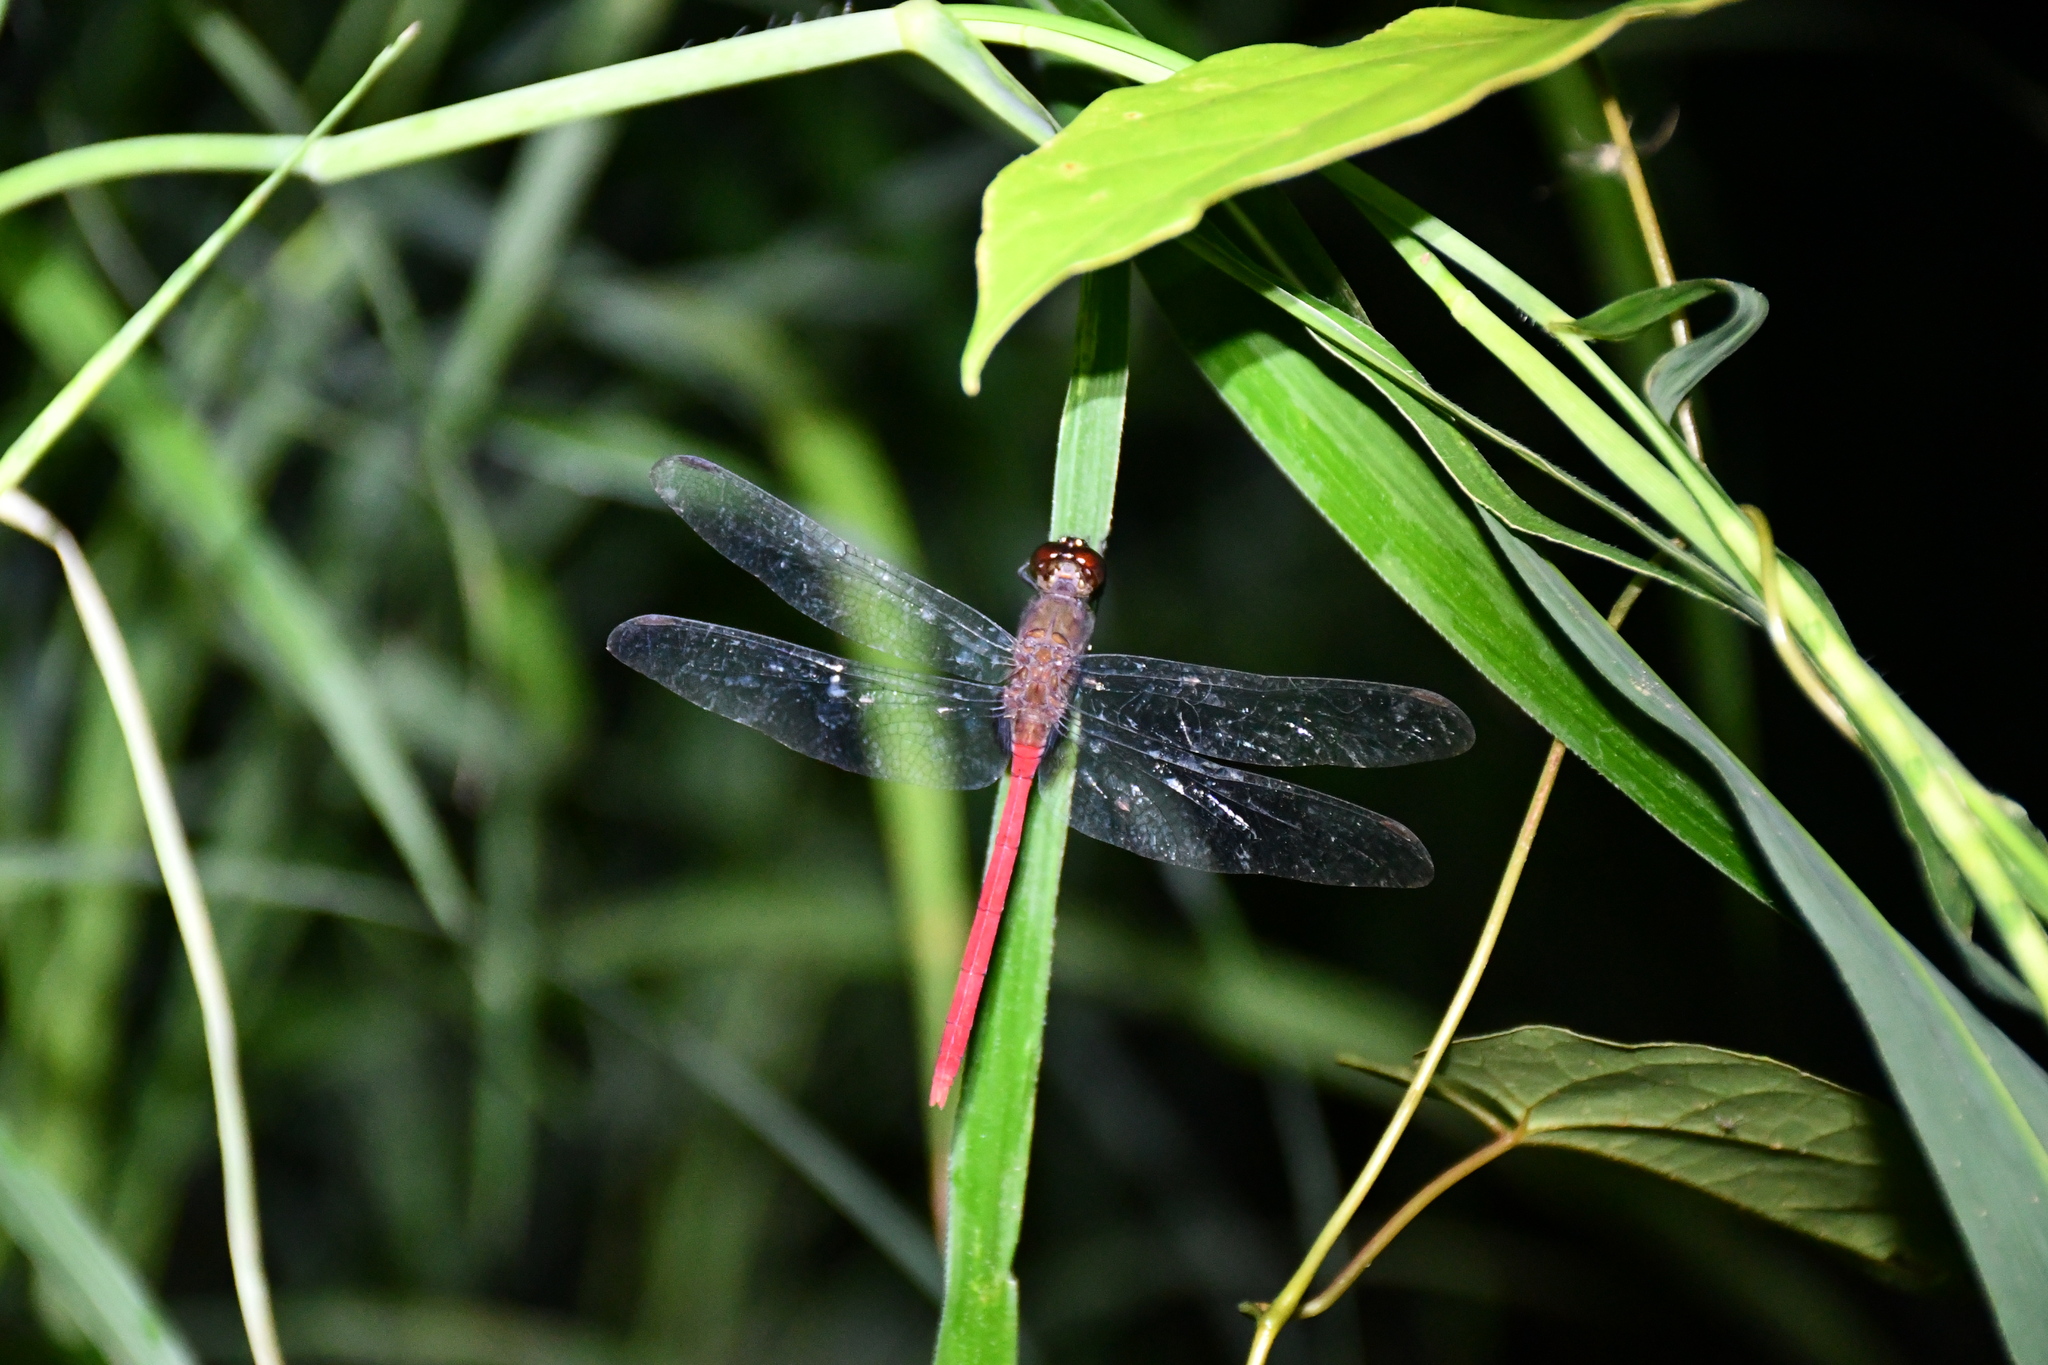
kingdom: Animalia
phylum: Arthropoda
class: Insecta
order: Odonata
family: Libellulidae
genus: Erythemis
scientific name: Erythemis haematogastra
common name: Red pondhawk
